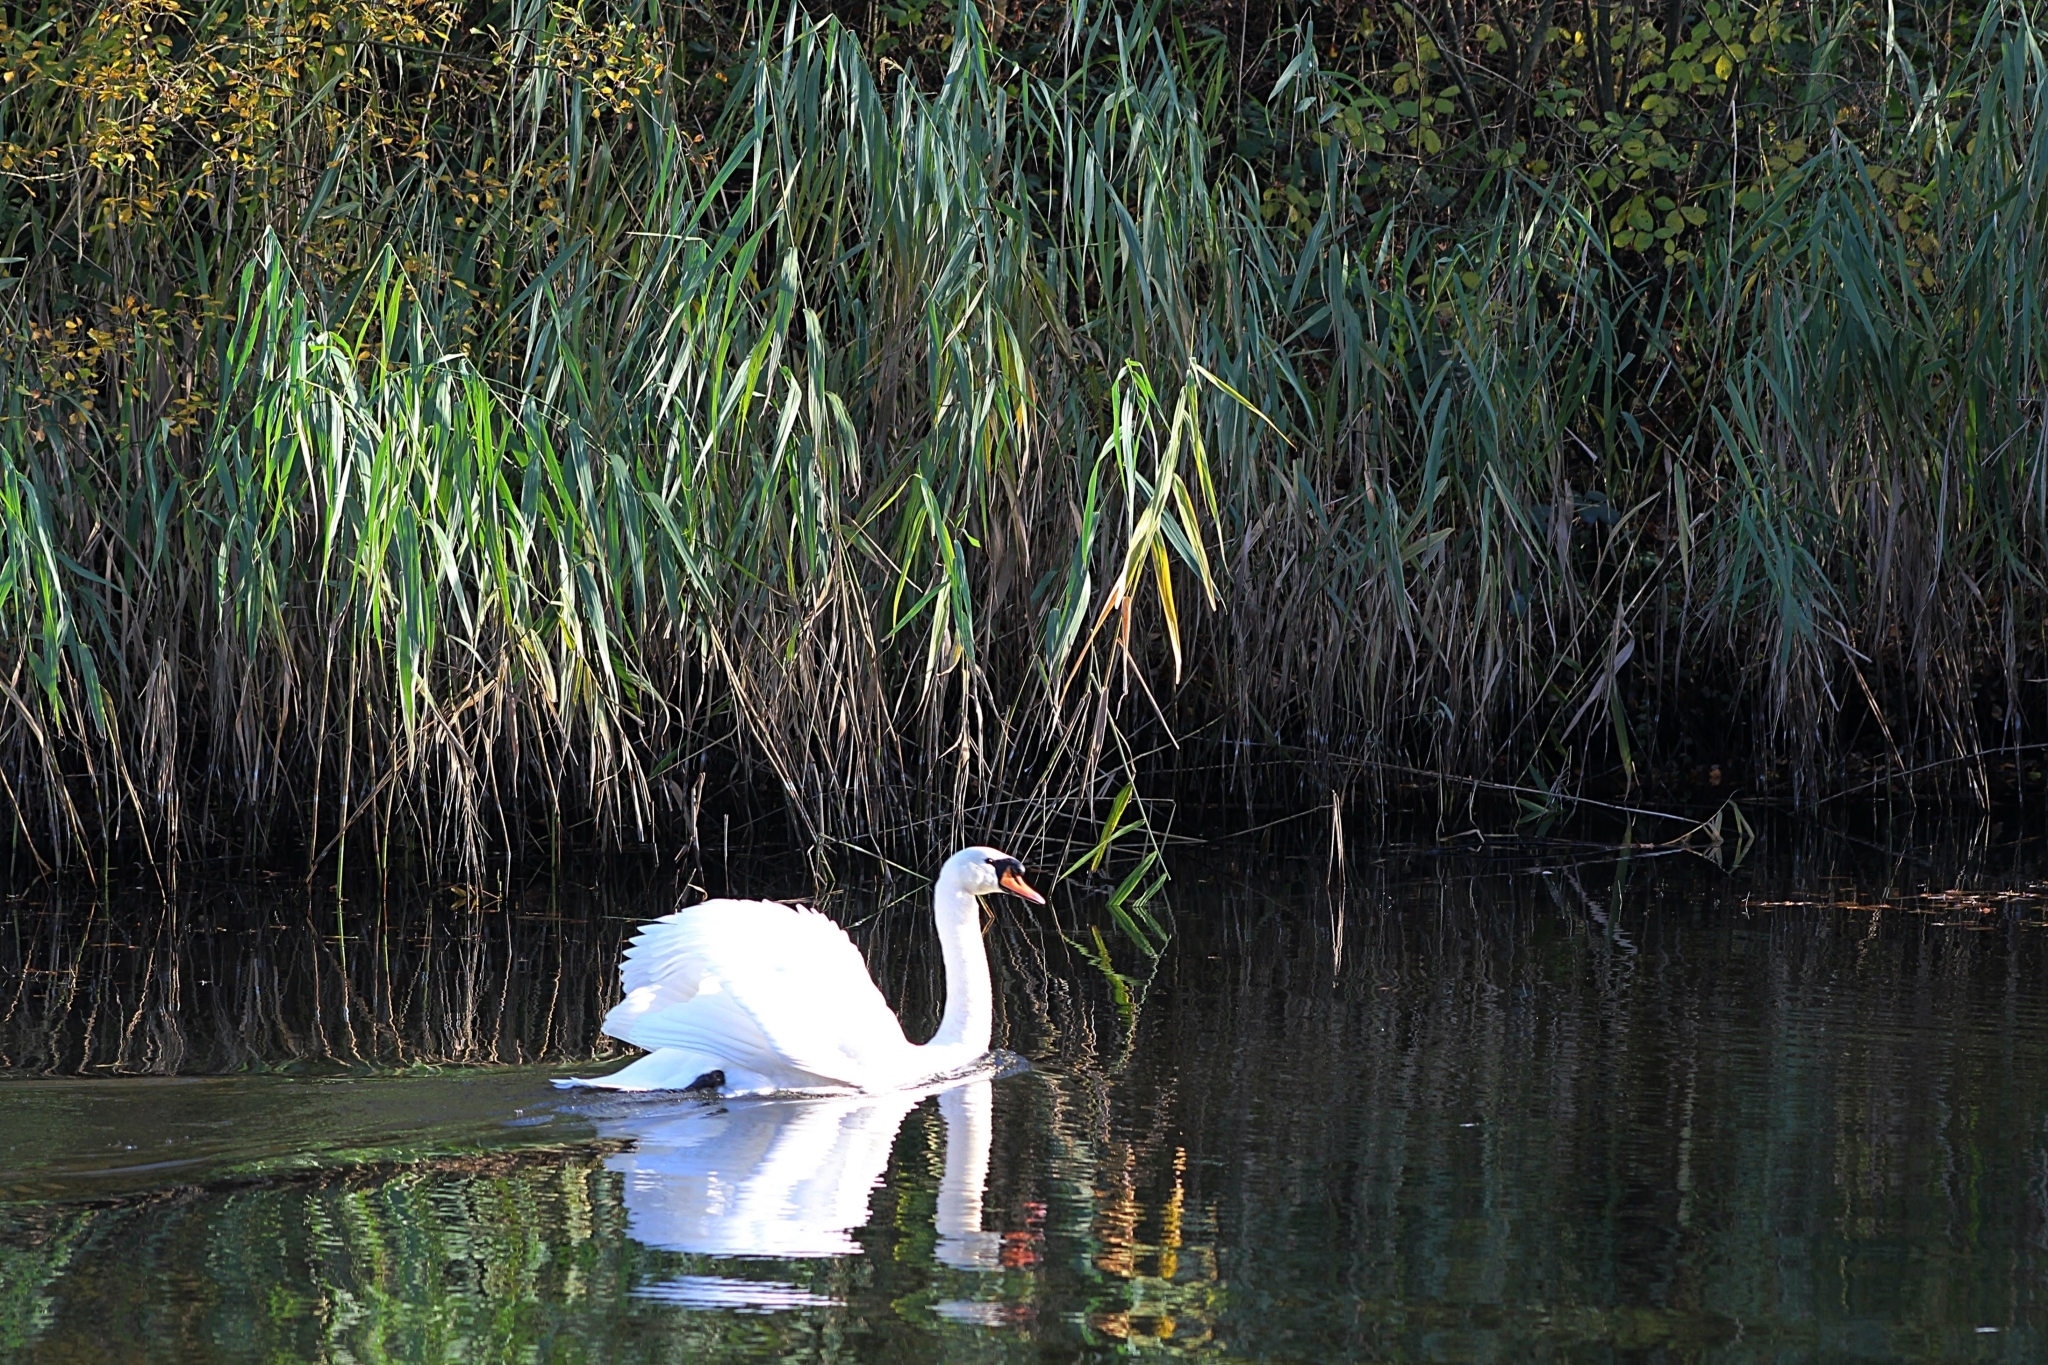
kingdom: Animalia
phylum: Chordata
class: Aves
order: Anseriformes
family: Anatidae
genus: Cygnus
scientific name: Cygnus olor
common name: Mute swan
